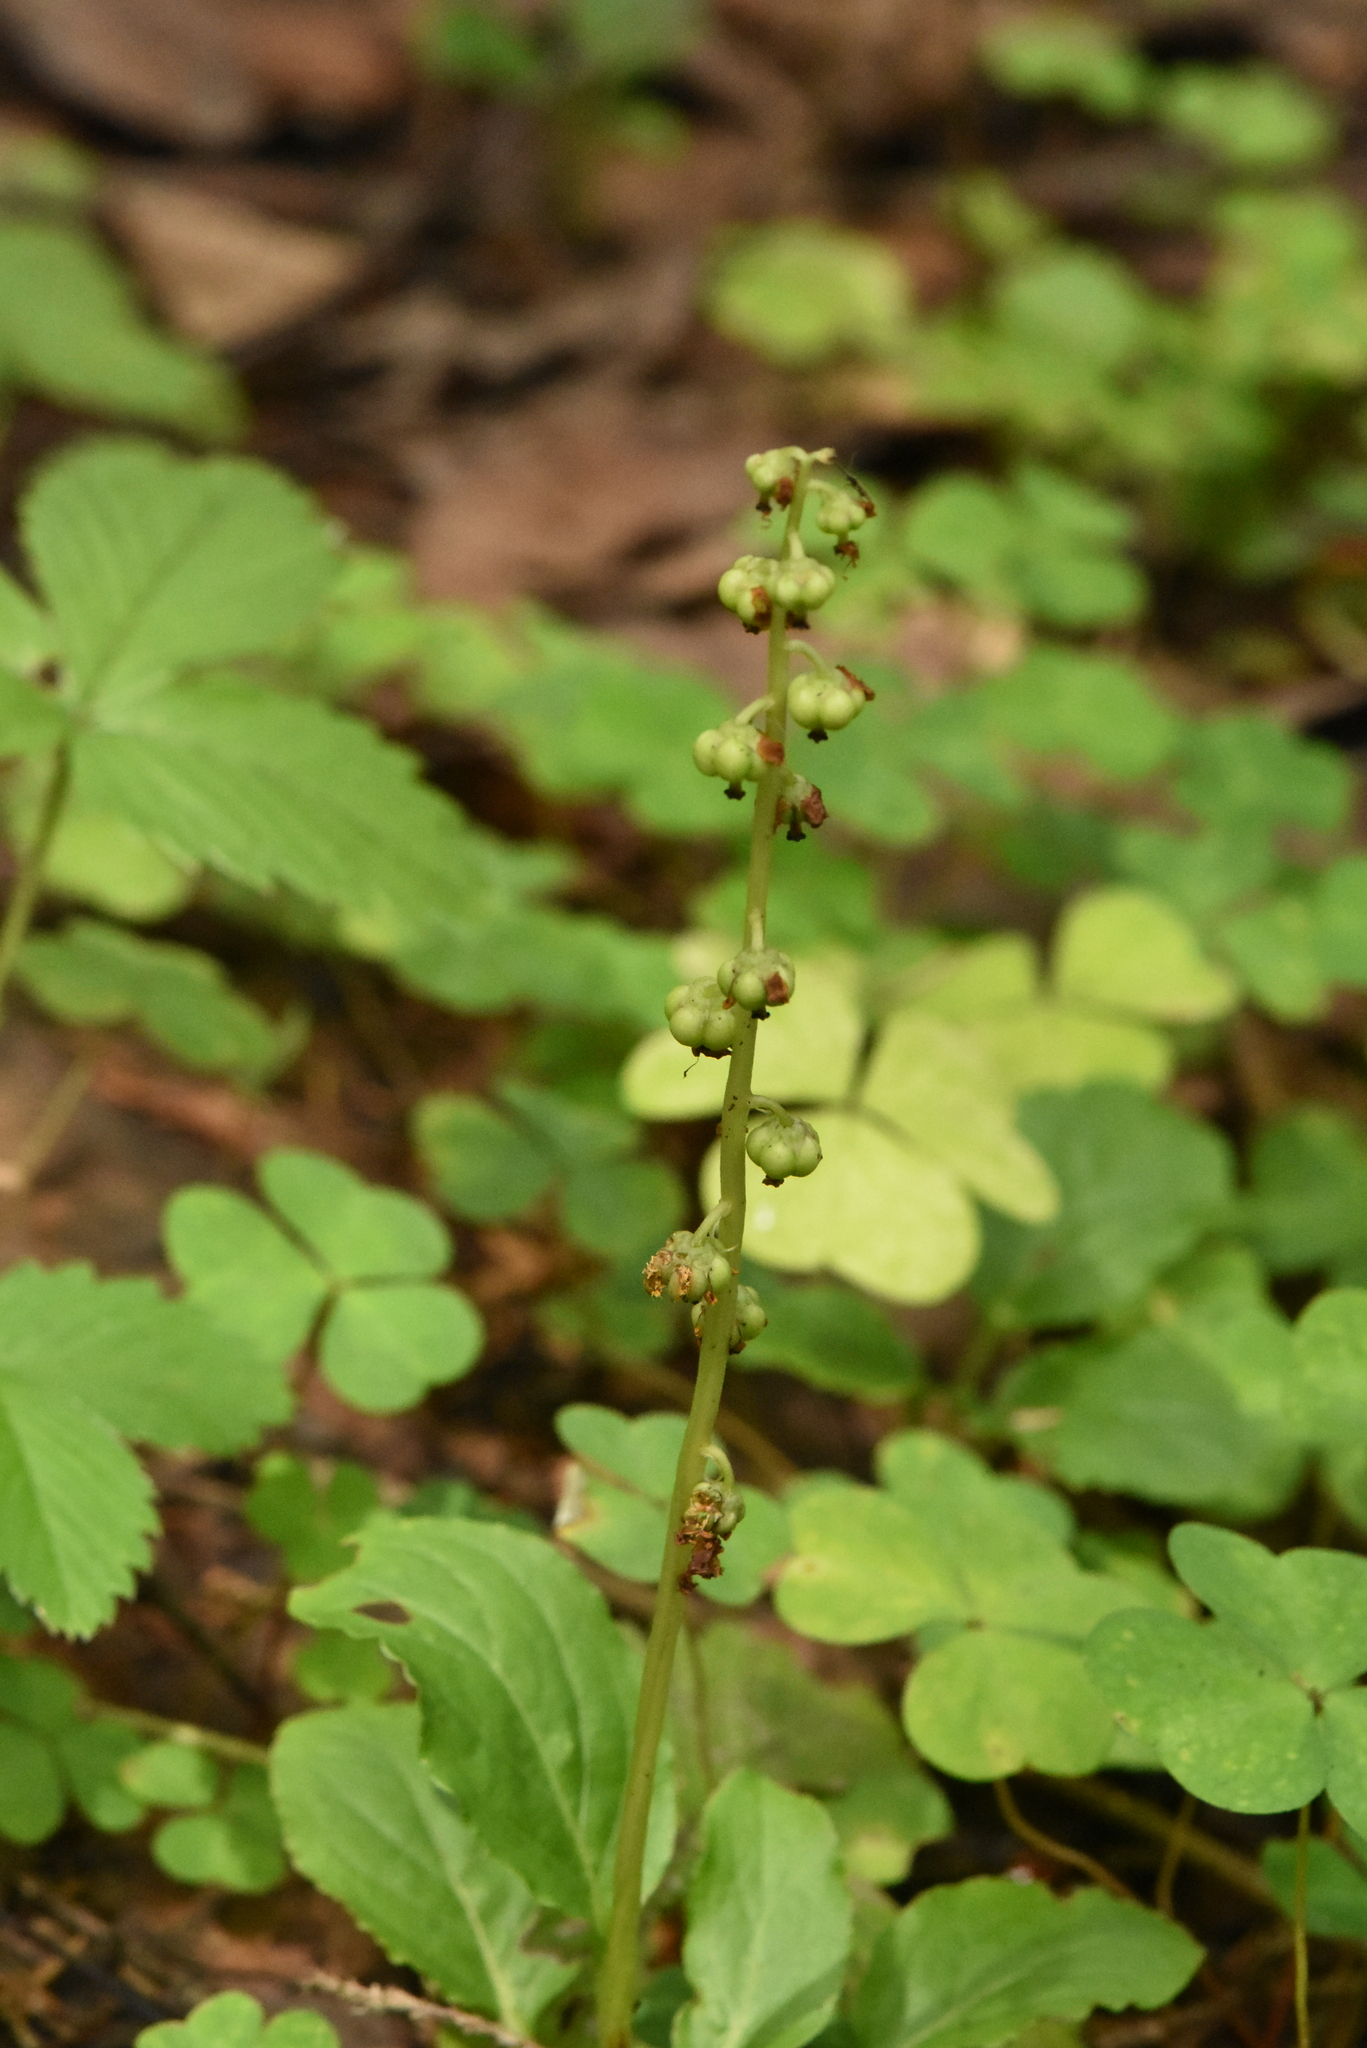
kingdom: Plantae
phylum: Tracheophyta
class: Magnoliopsida
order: Ericales
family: Ericaceae
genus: Pyrola
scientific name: Pyrola minor
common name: Common wintergreen
